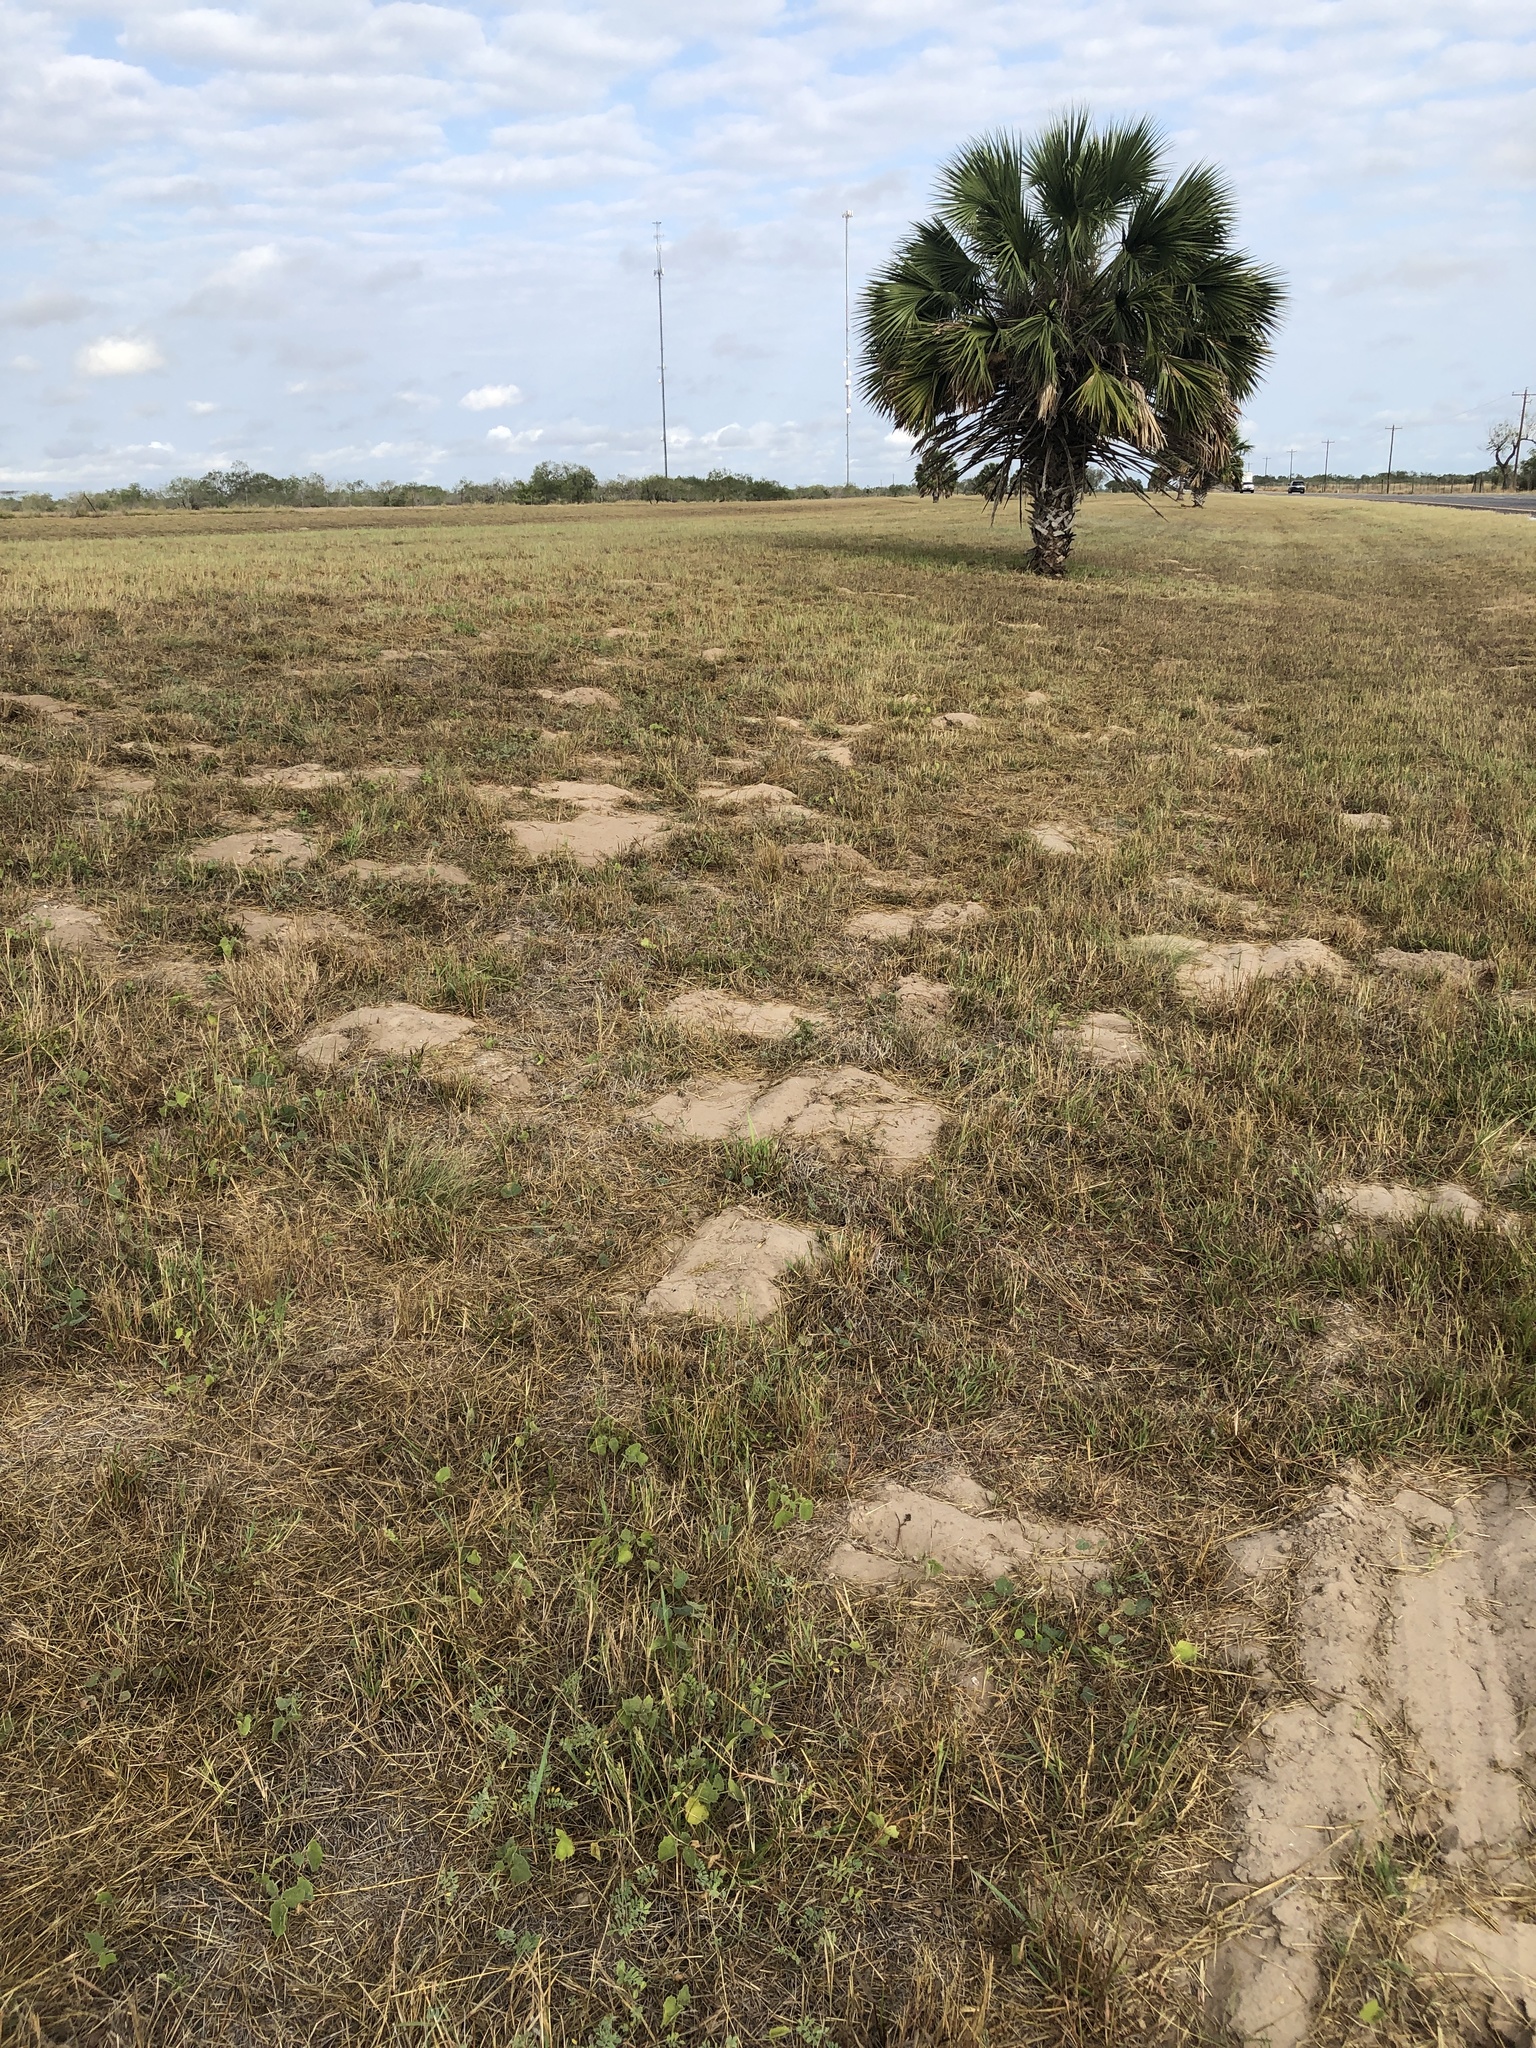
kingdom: Animalia
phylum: Chordata
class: Mammalia
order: Rodentia
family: Geomyidae
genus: Geomys
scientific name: Geomys personatus
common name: Texas pocket gopher
